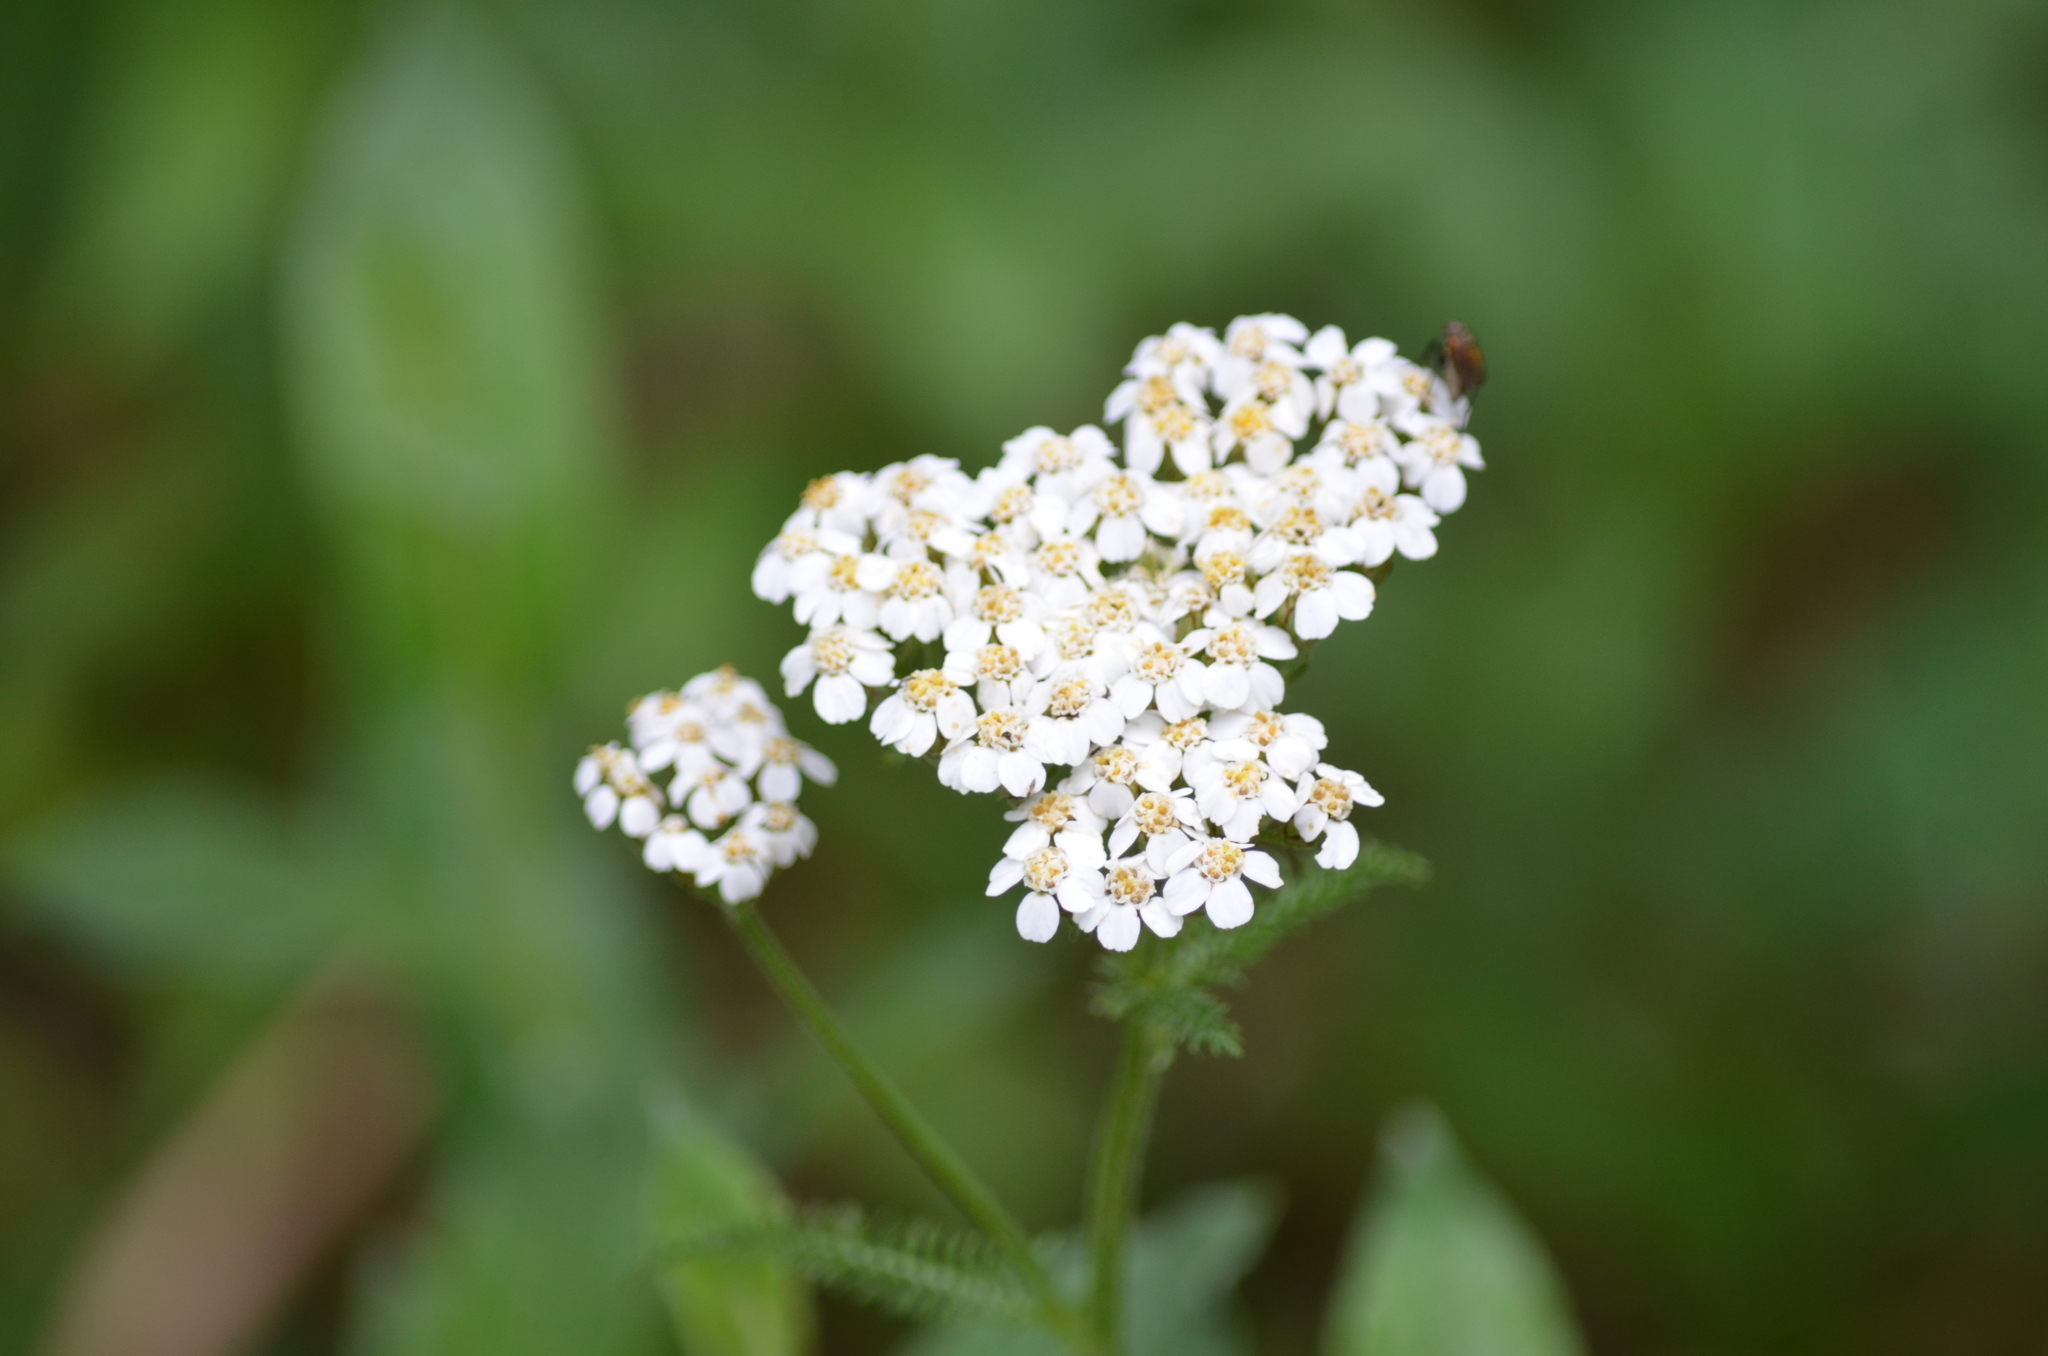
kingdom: Plantae
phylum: Tracheophyta
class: Magnoliopsida
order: Asterales
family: Asteraceae
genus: Achillea
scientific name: Achillea millefolium
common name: Yarrow
